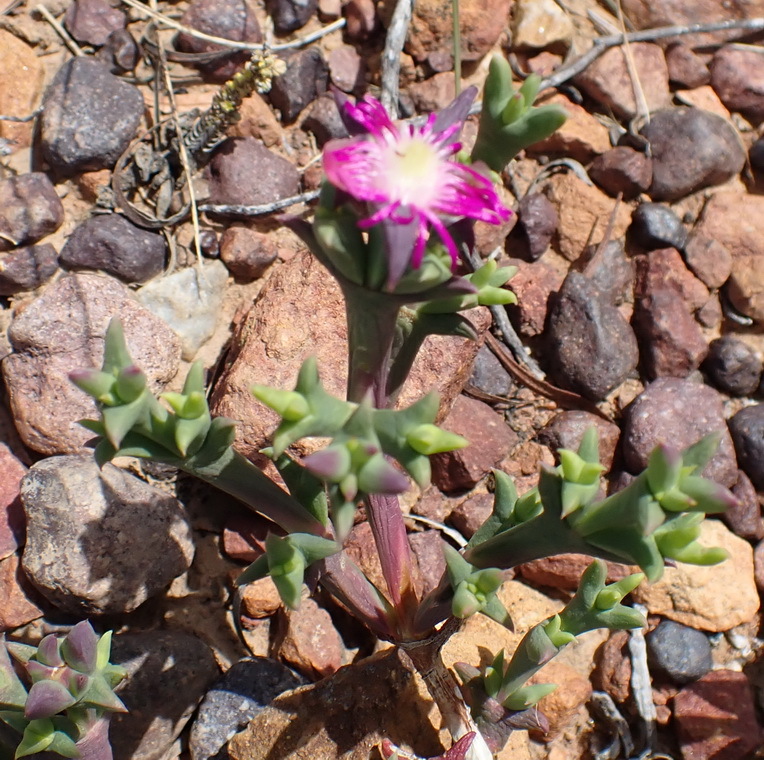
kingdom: Plantae
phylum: Tracheophyta
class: Magnoliopsida
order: Caryophyllales
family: Aizoaceae
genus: Smicrostigma
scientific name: Smicrostigma viride
